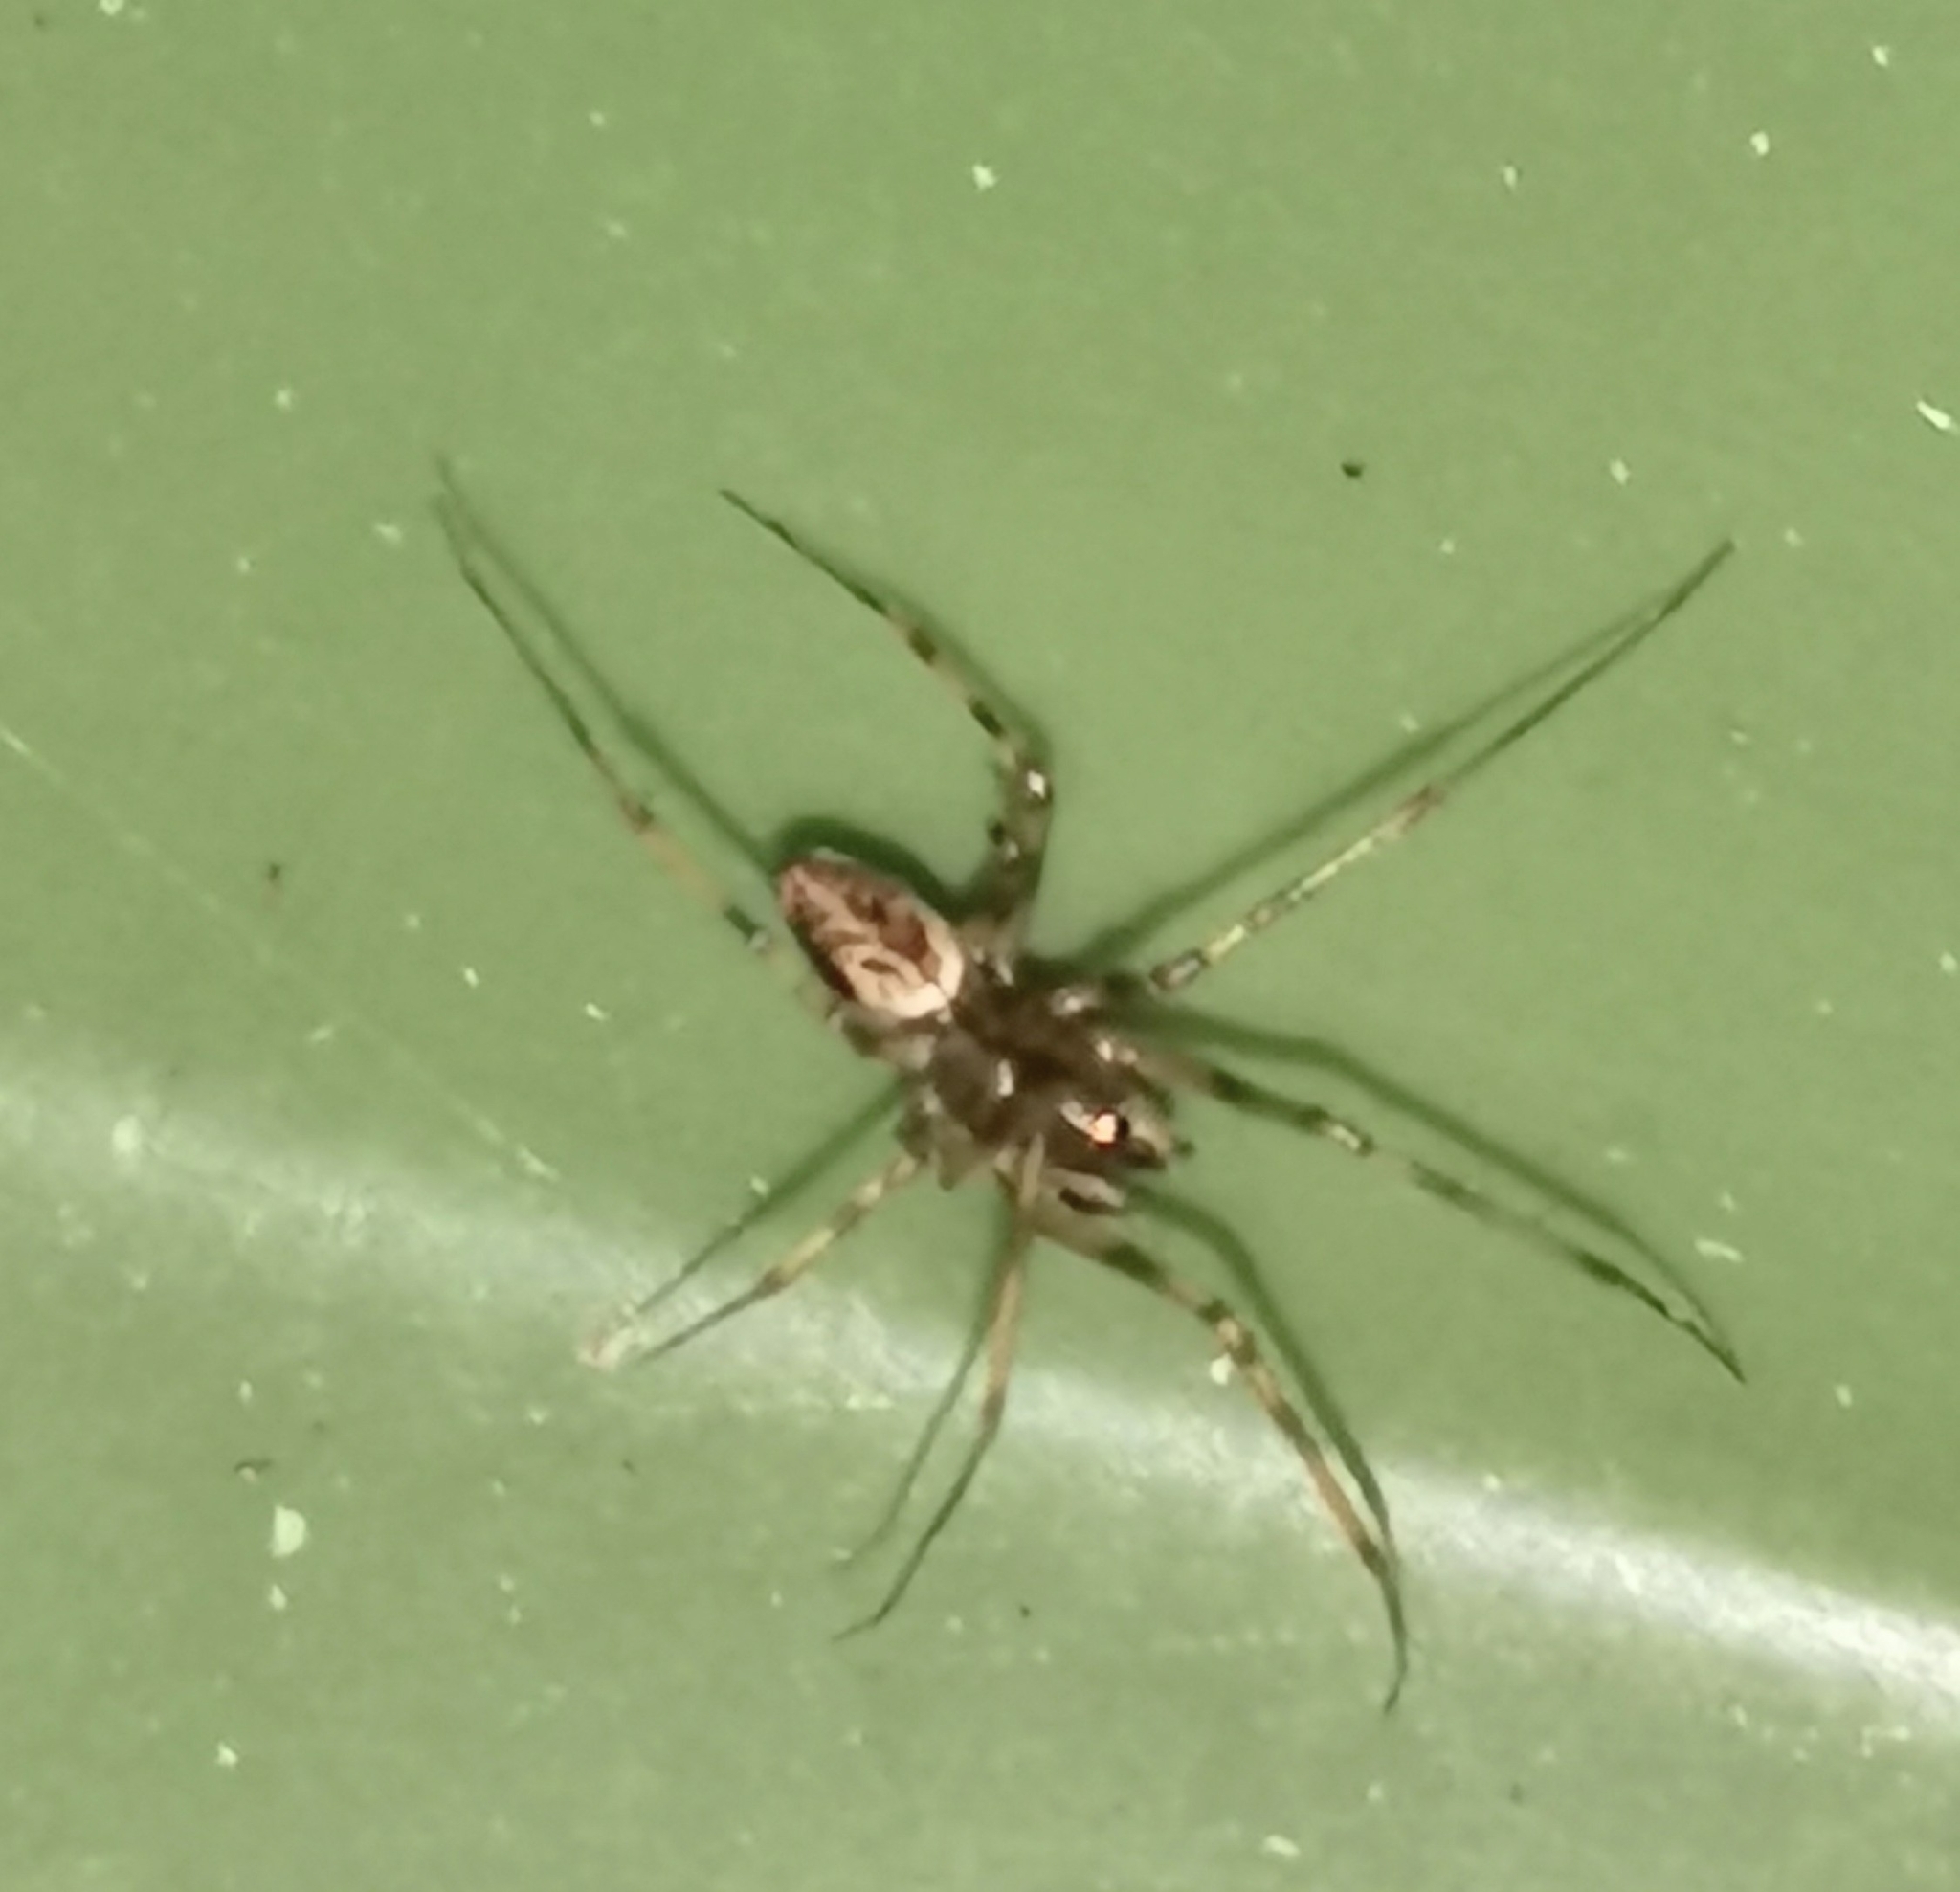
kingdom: Animalia
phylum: Arthropoda
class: Arachnida
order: Araneae
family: Linyphiidae
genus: Drapetisca
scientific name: Drapetisca socialis
